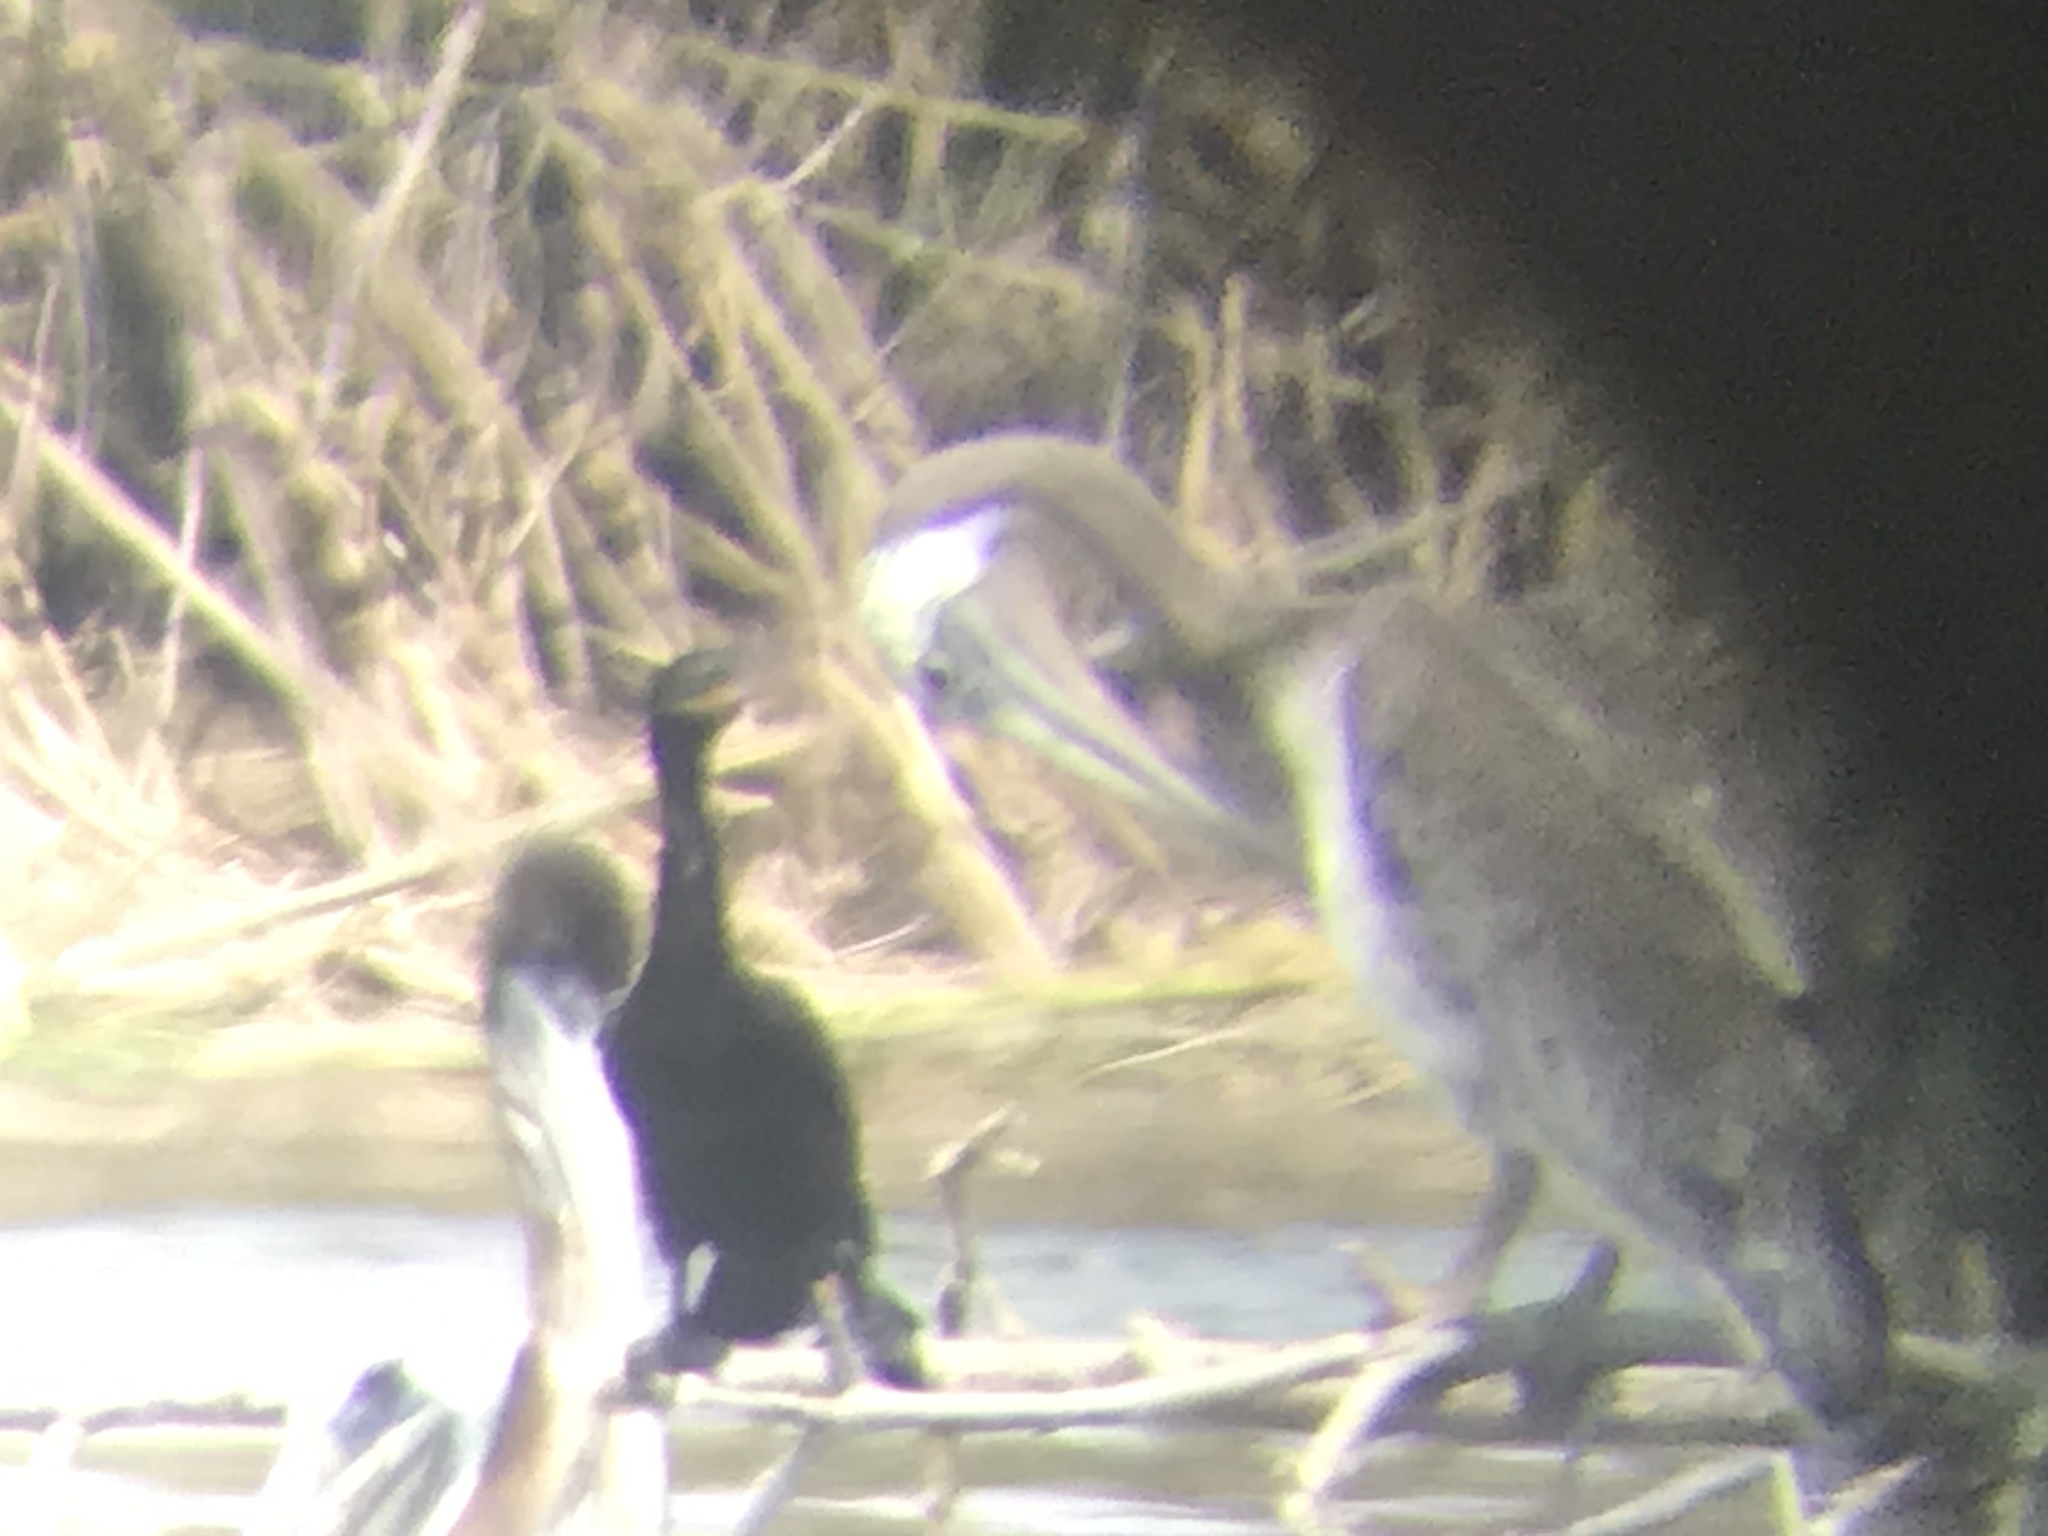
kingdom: Animalia
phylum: Chordata
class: Aves
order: Pelecaniformes
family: Pelecanidae
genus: Pelecanus
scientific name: Pelecanus occidentalis
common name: Brown pelican
